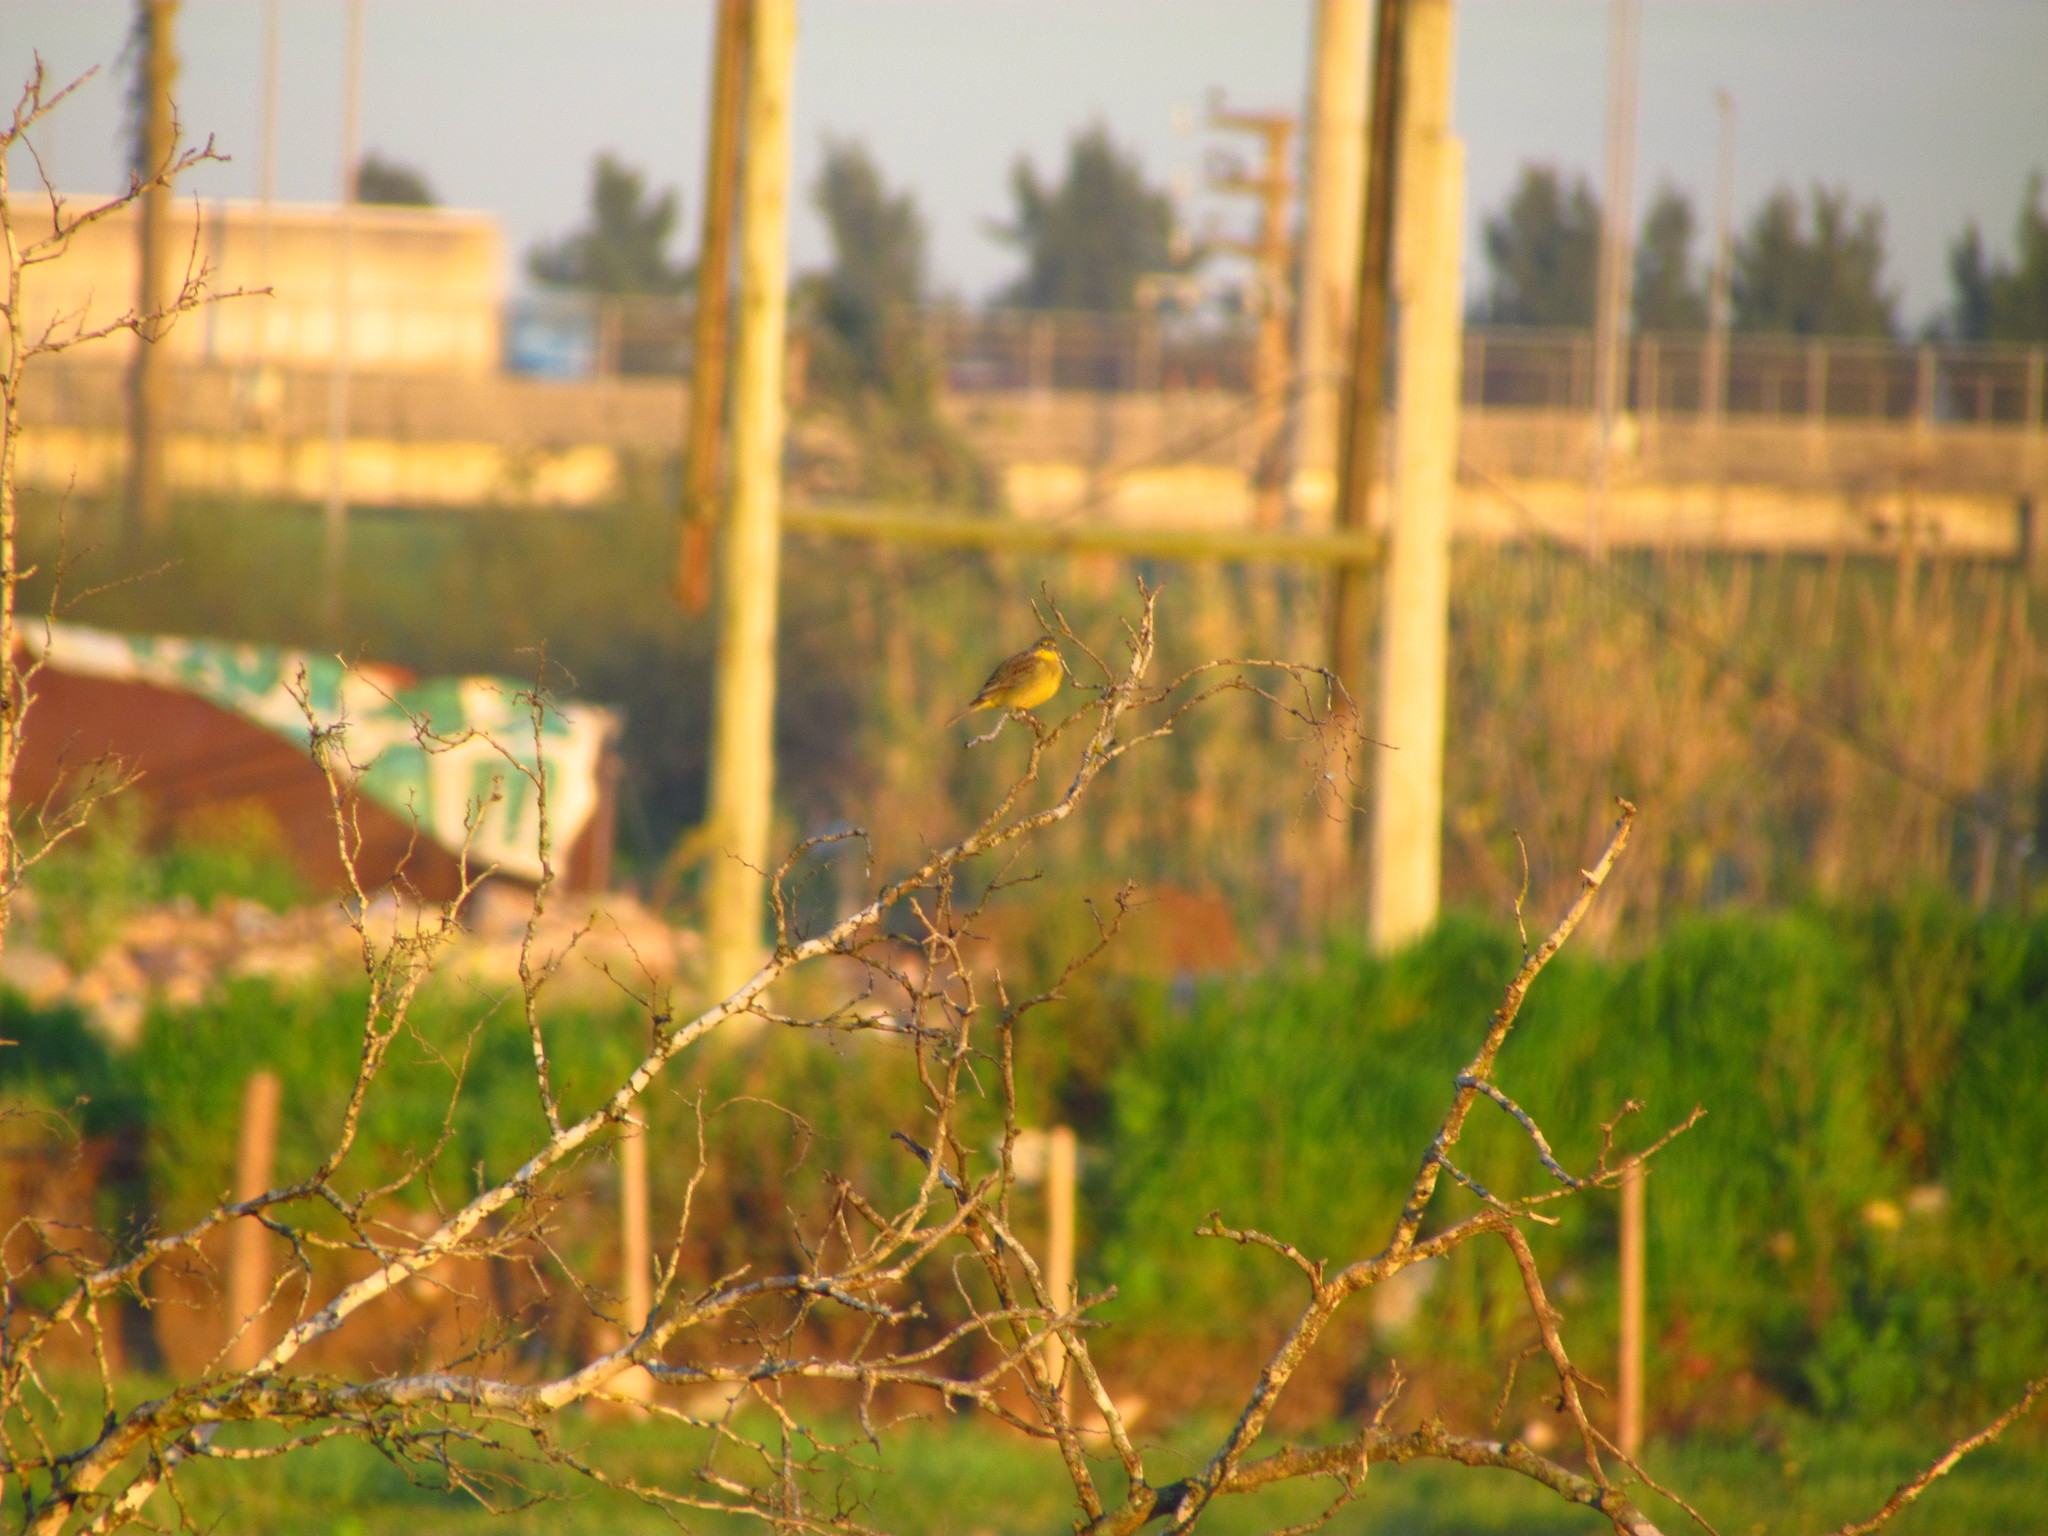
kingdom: Animalia
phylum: Chordata
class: Aves
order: Passeriformes
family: Thraupidae
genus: Sicalis
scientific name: Sicalis luteola
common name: Grassland yellow-finch
